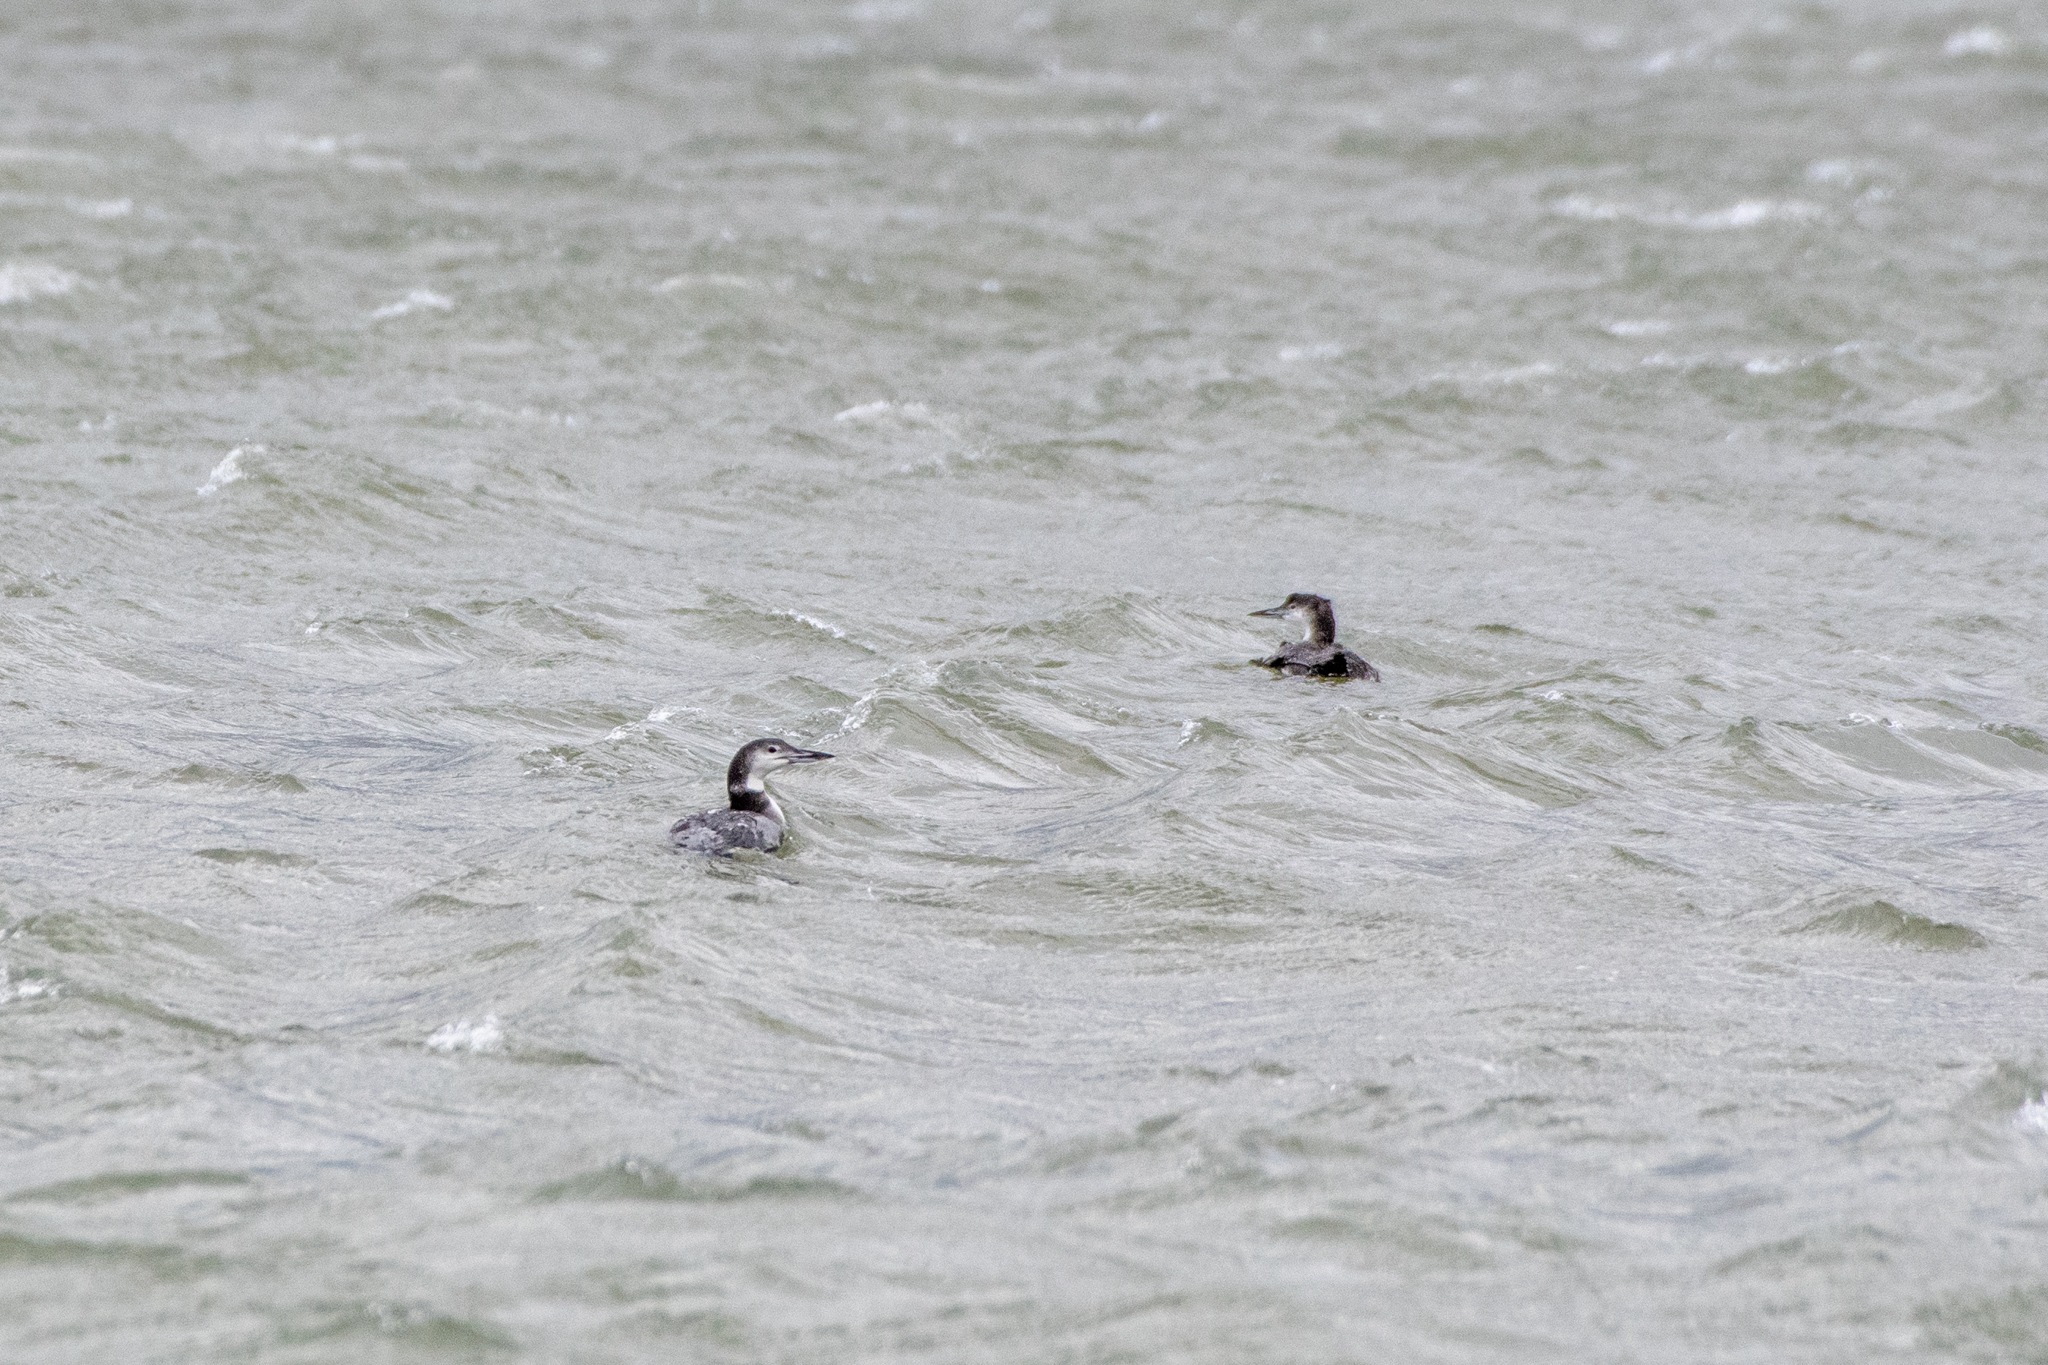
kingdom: Animalia
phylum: Chordata
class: Aves
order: Gaviiformes
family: Gaviidae
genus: Gavia
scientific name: Gavia immer
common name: Common loon
